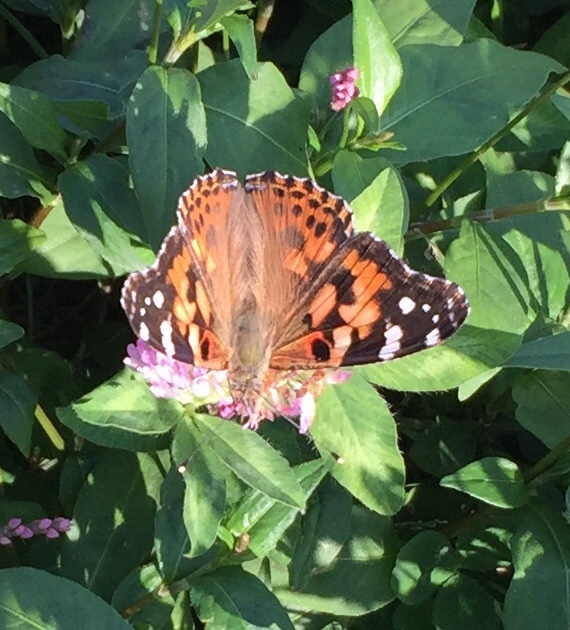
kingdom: Animalia
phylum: Arthropoda
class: Insecta
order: Lepidoptera
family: Nymphalidae
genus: Vanessa
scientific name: Vanessa cardui
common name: Painted lady
